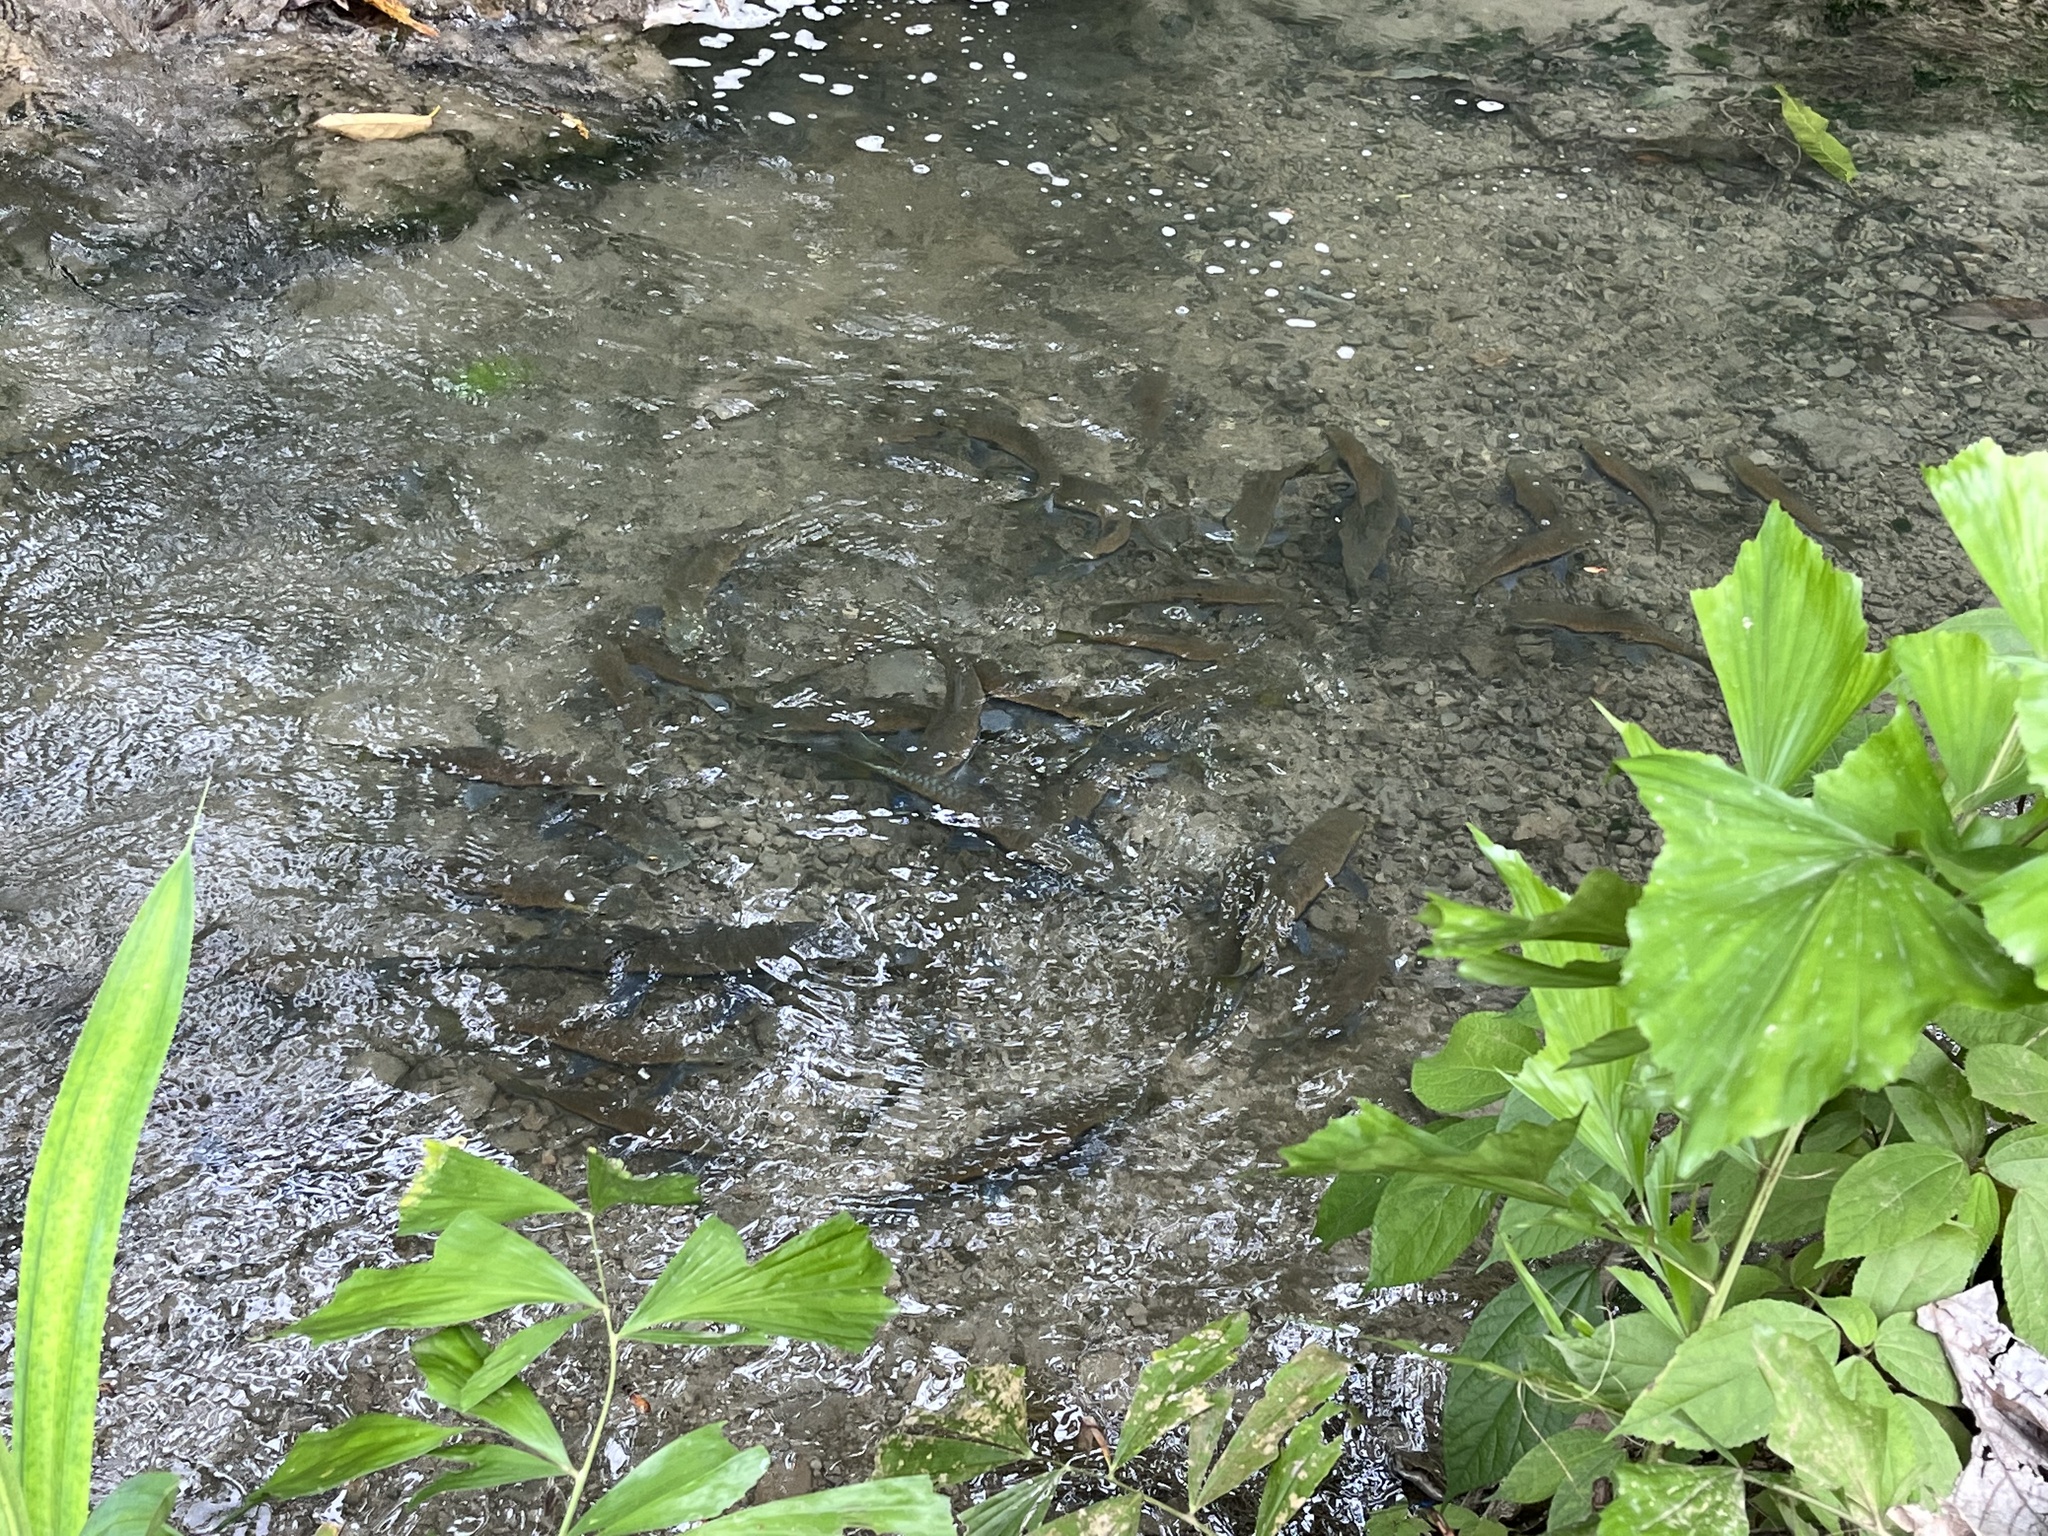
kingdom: Animalia
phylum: Chordata
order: Cypriniformes
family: Cyprinidae
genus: Neolissochilus
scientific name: Neolissochilus stracheyi
